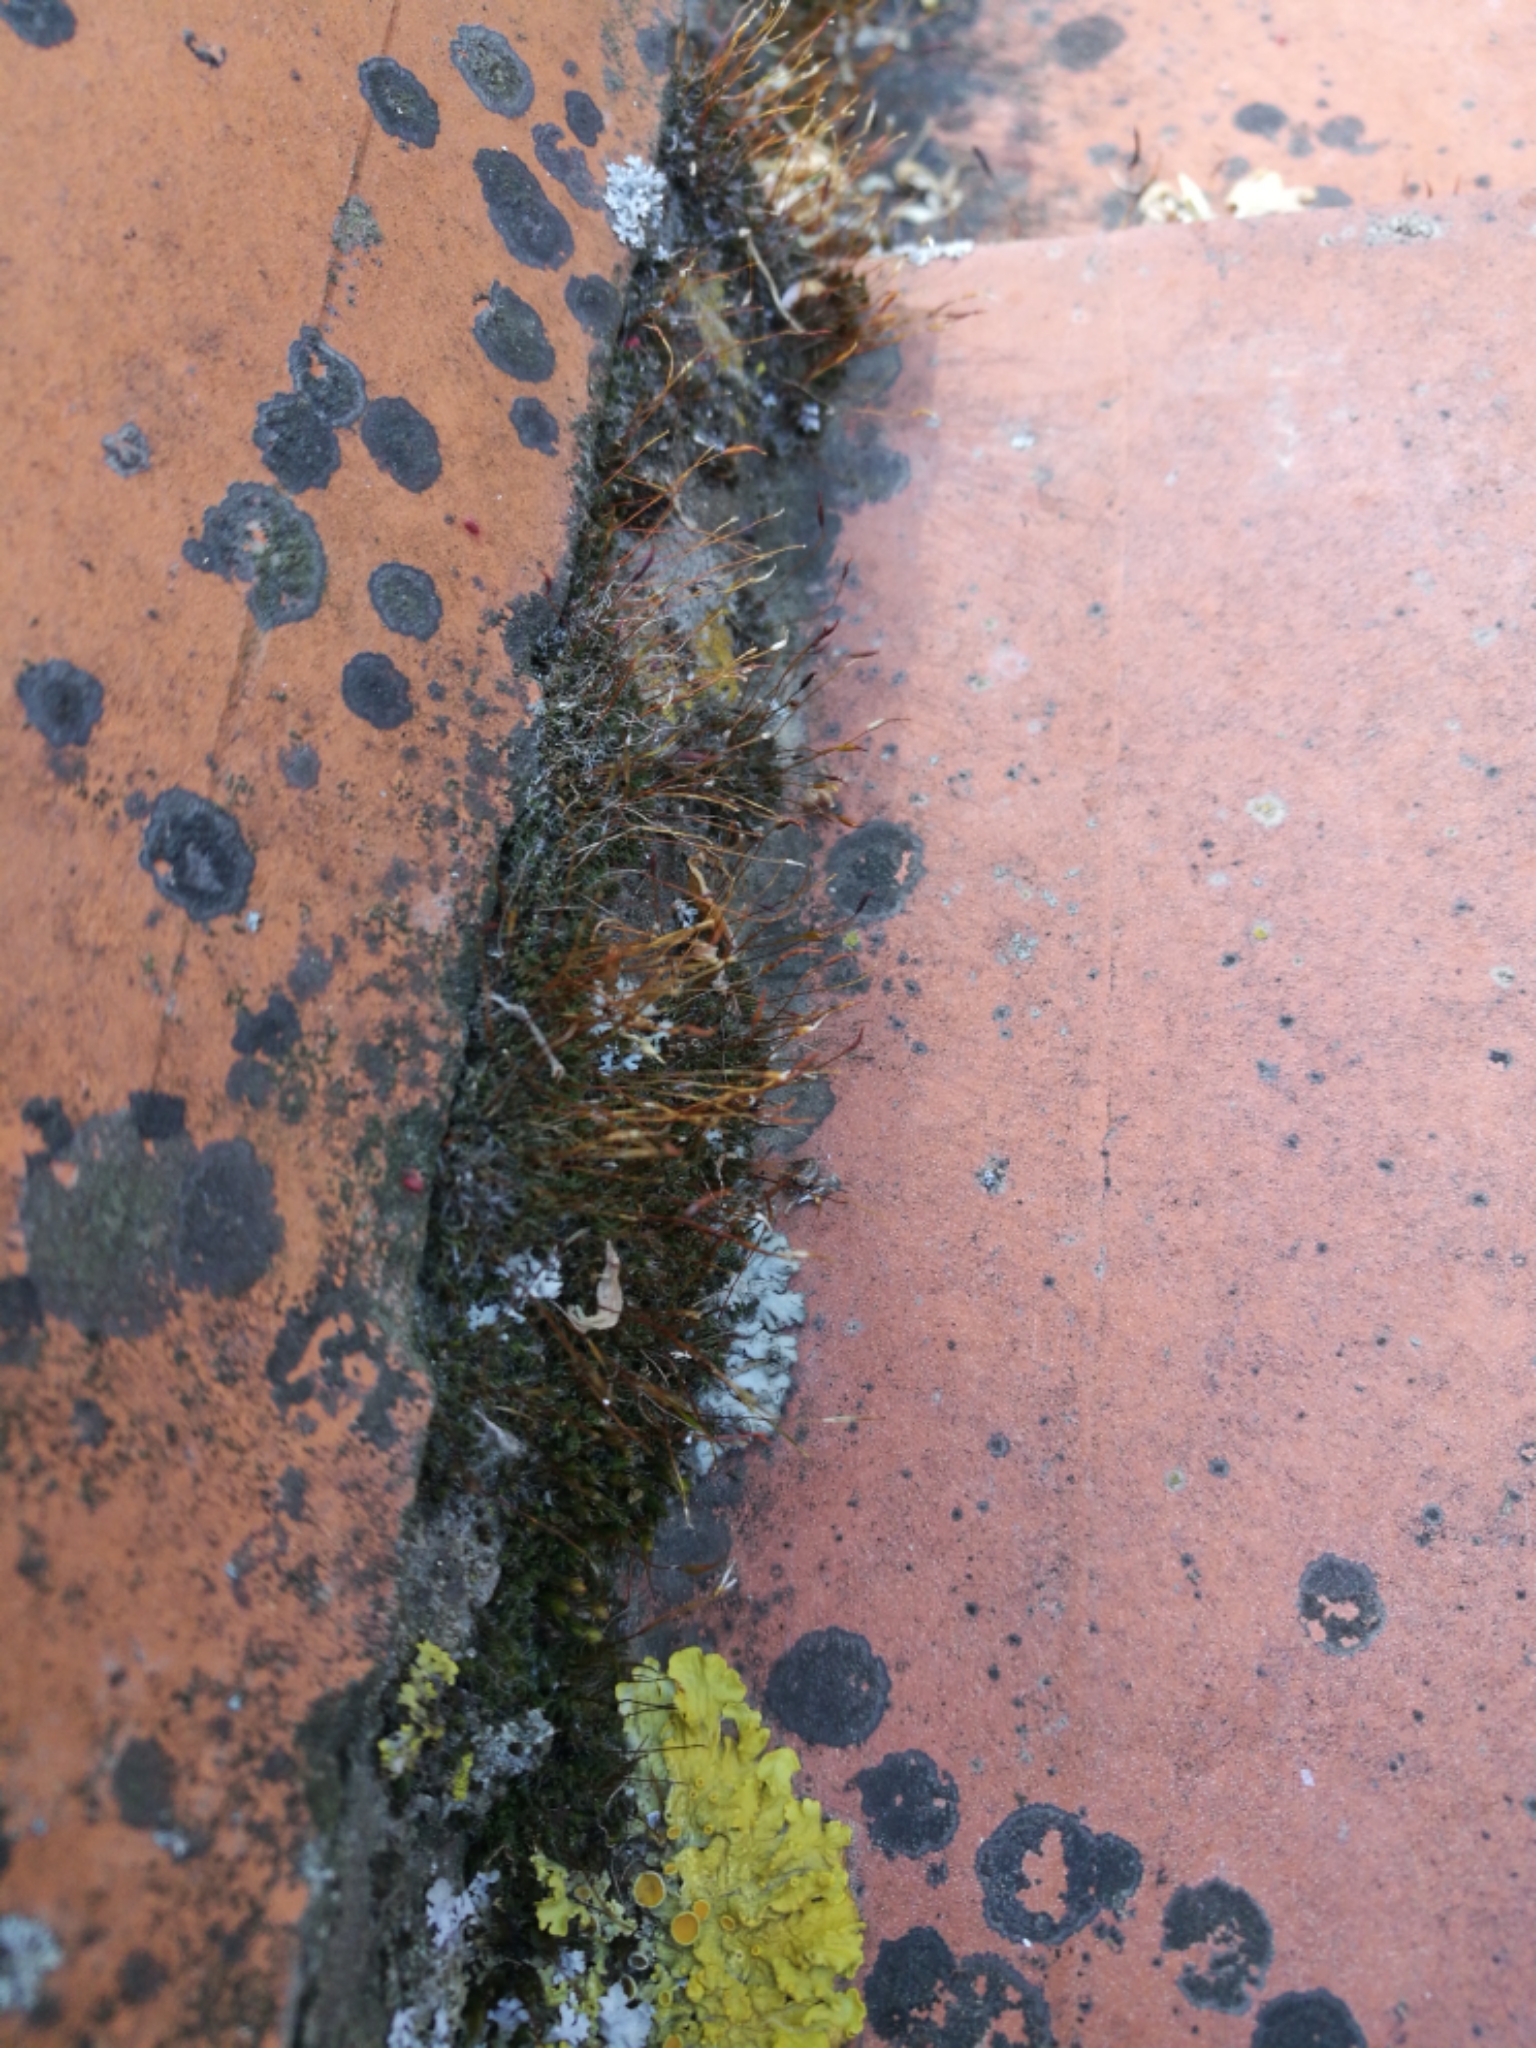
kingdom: Plantae
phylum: Bryophyta
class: Bryopsida
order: Pottiales
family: Pottiaceae
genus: Tortula
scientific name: Tortula muralis
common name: Wall screw-moss
